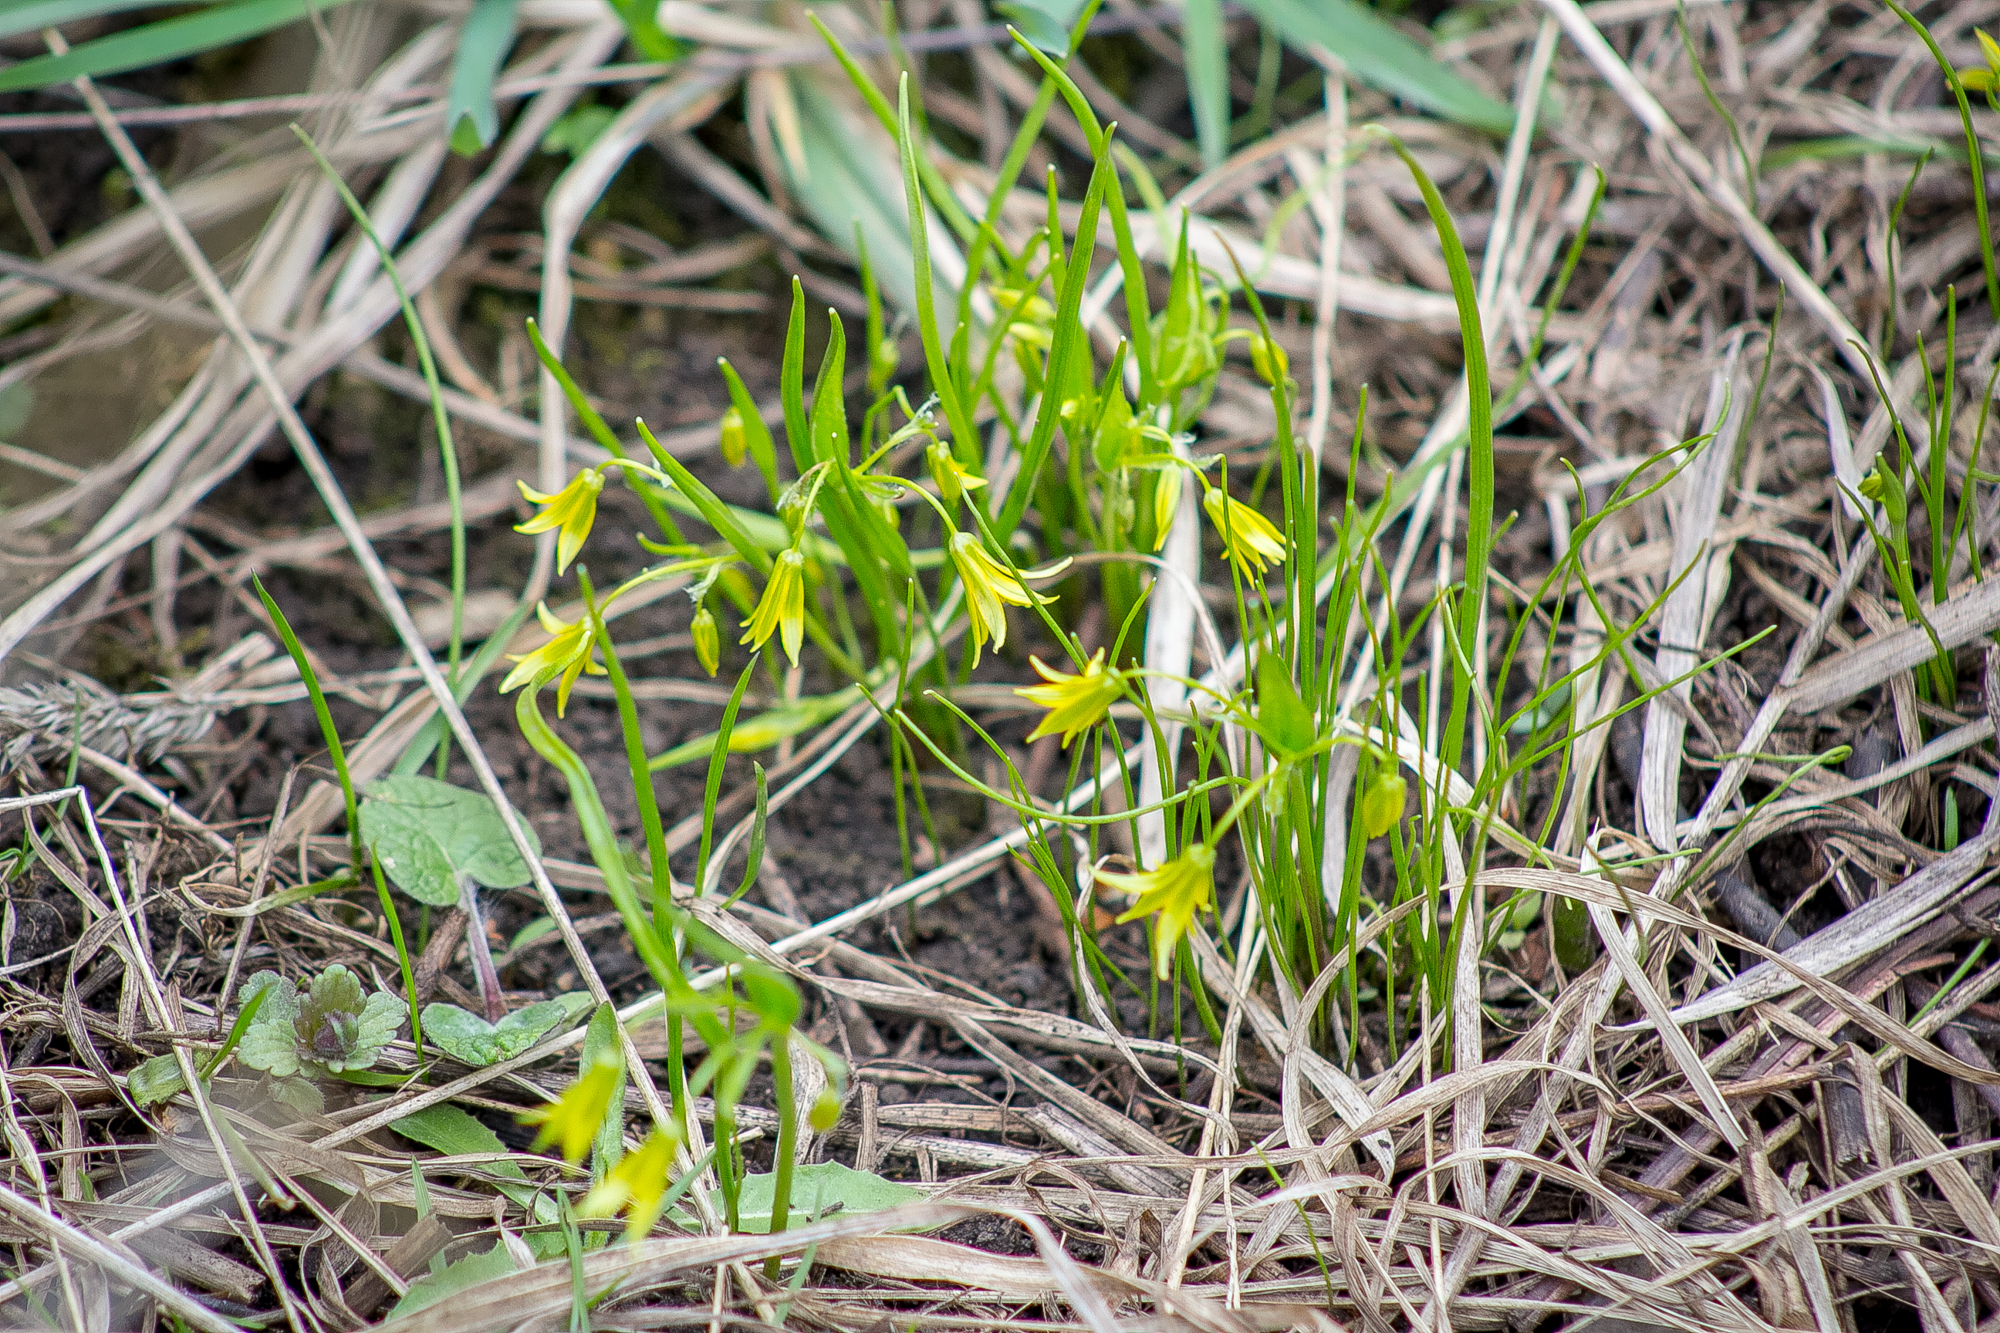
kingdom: Plantae
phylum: Tracheophyta
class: Liliopsida
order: Liliales
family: Liliaceae
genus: Gagea
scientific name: Gagea minima
